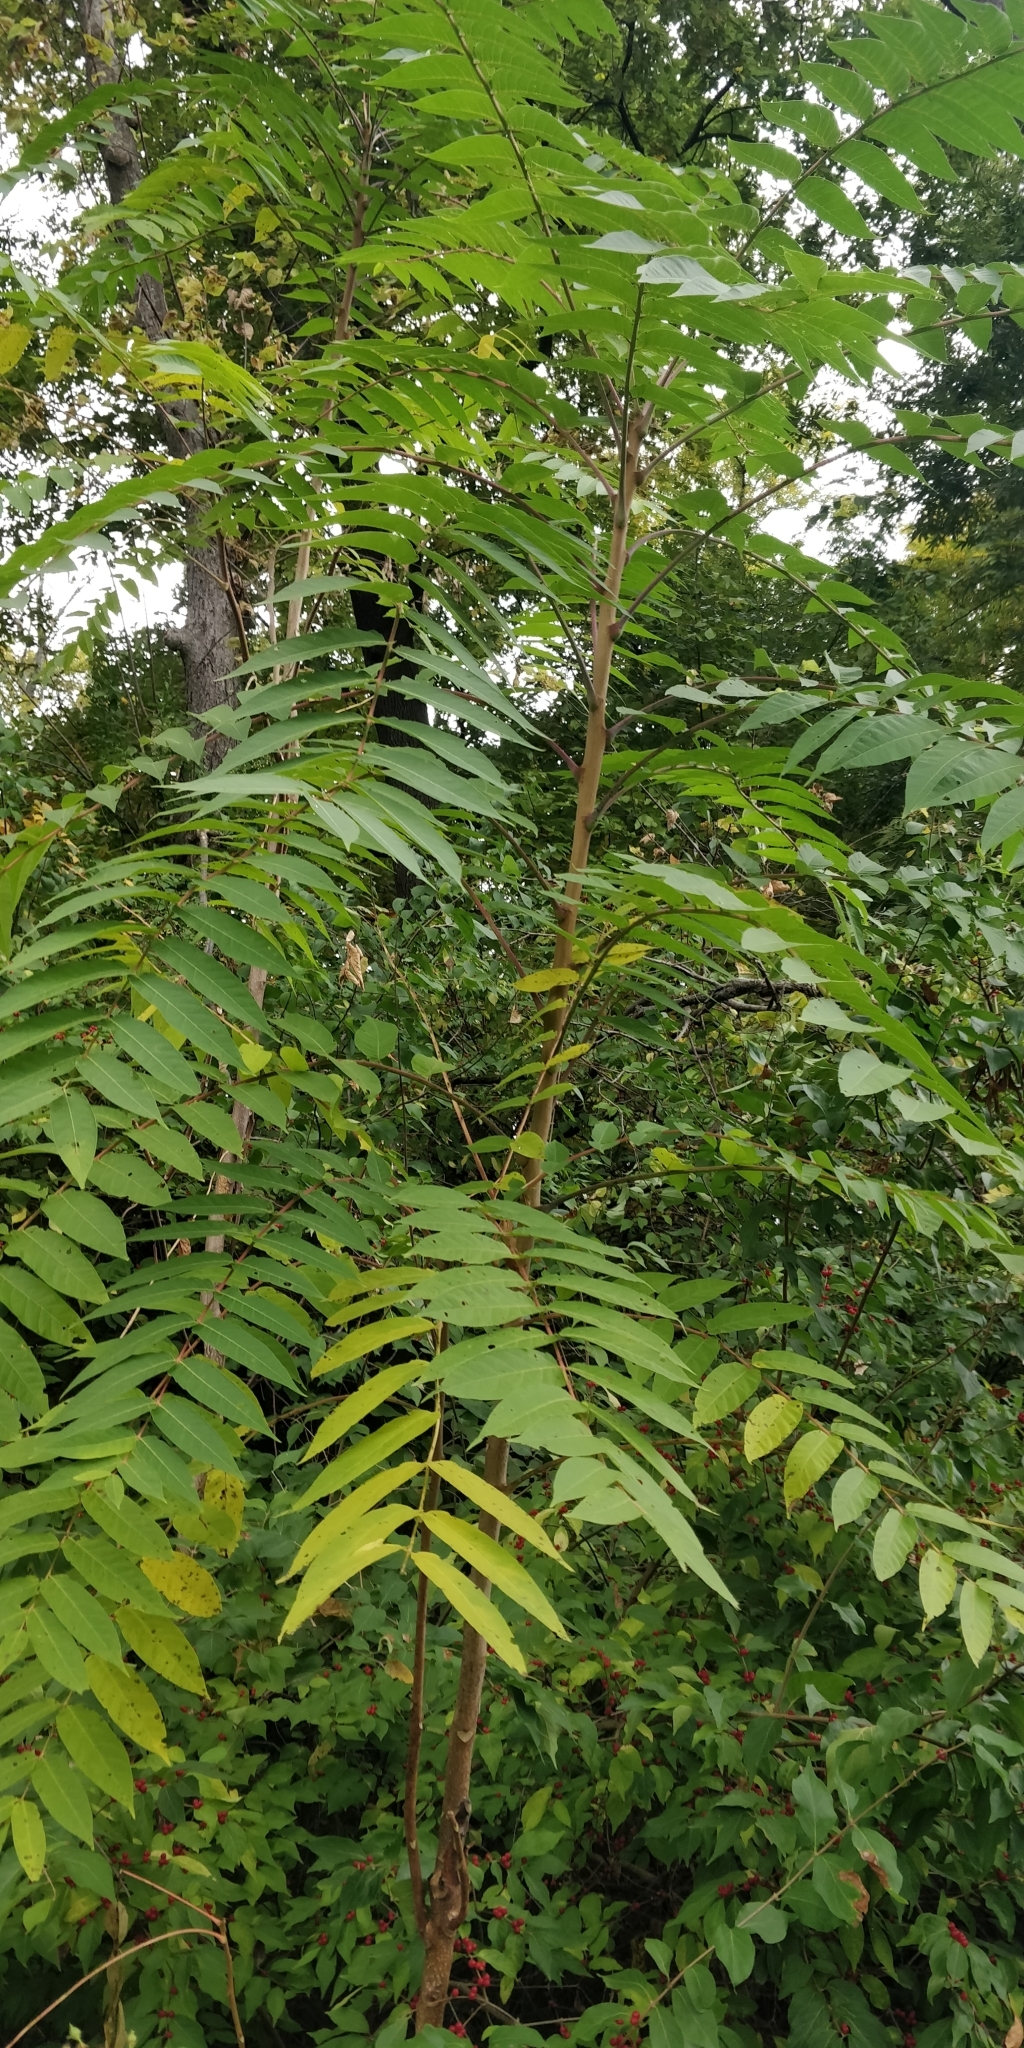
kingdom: Plantae
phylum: Tracheophyta
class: Magnoliopsida
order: Sapindales
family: Simaroubaceae
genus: Ailanthus
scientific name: Ailanthus altissima
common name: Tree-of-heaven
